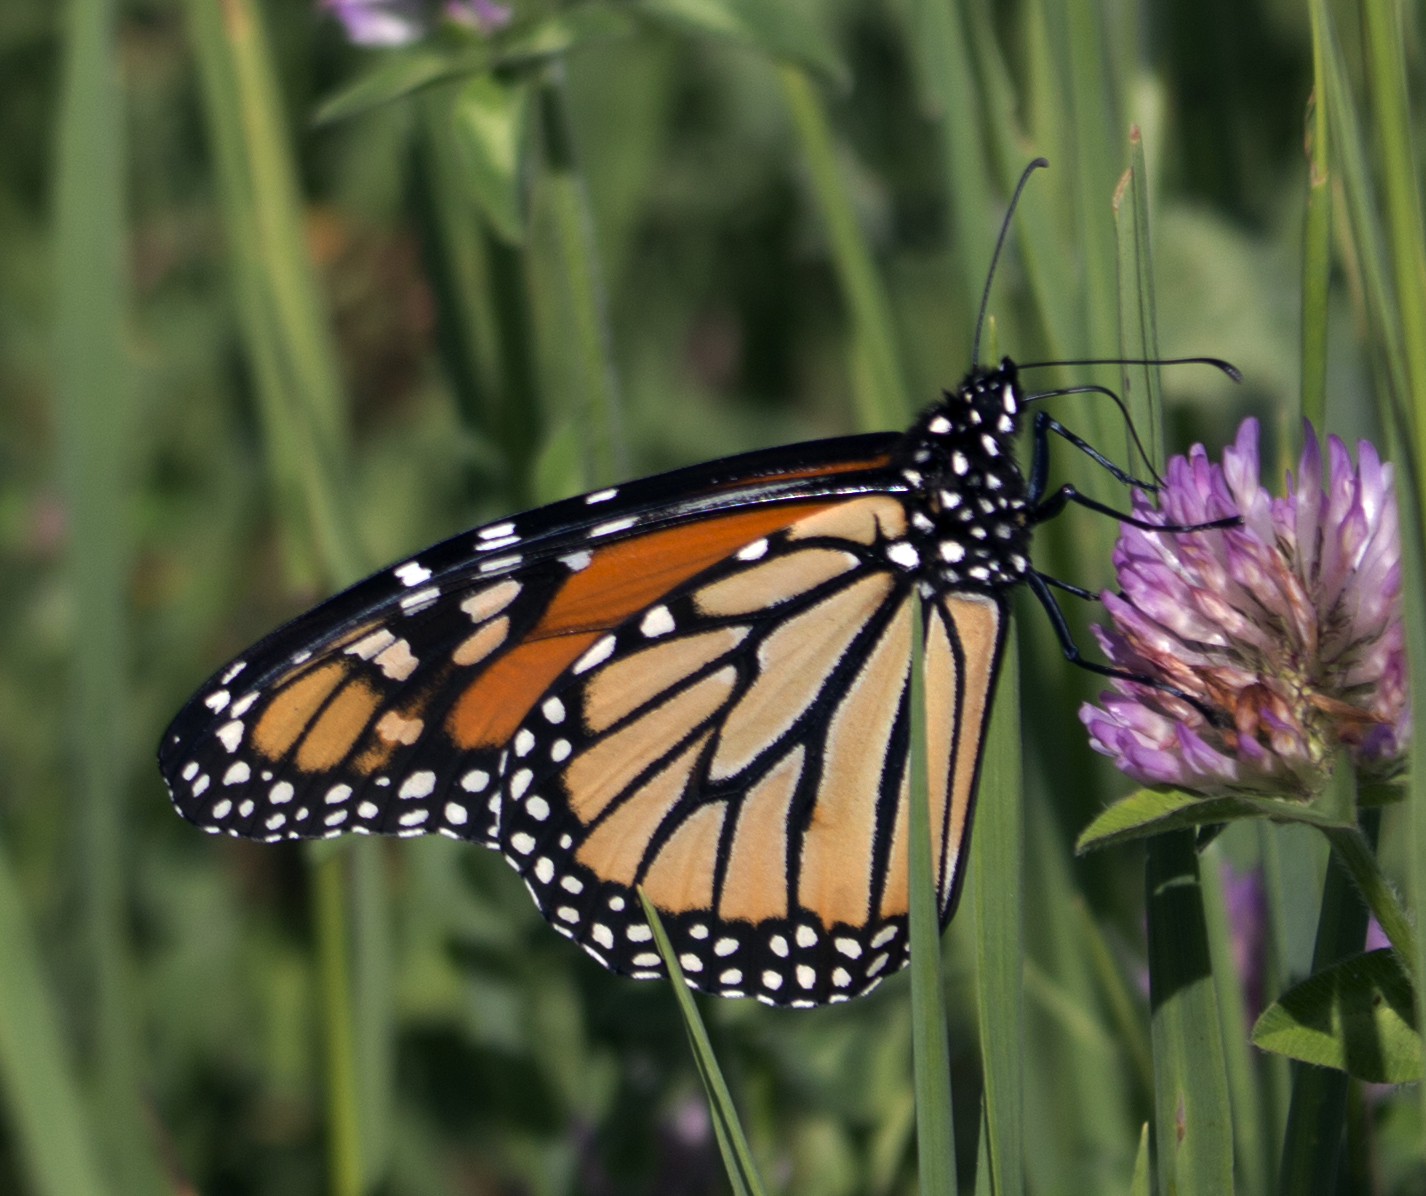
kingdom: Animalia
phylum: Arthropoda
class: Insecta
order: Lepidoptera
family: Nymphalidae
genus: Danaus
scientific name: Danaus plexippus
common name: Monarch
